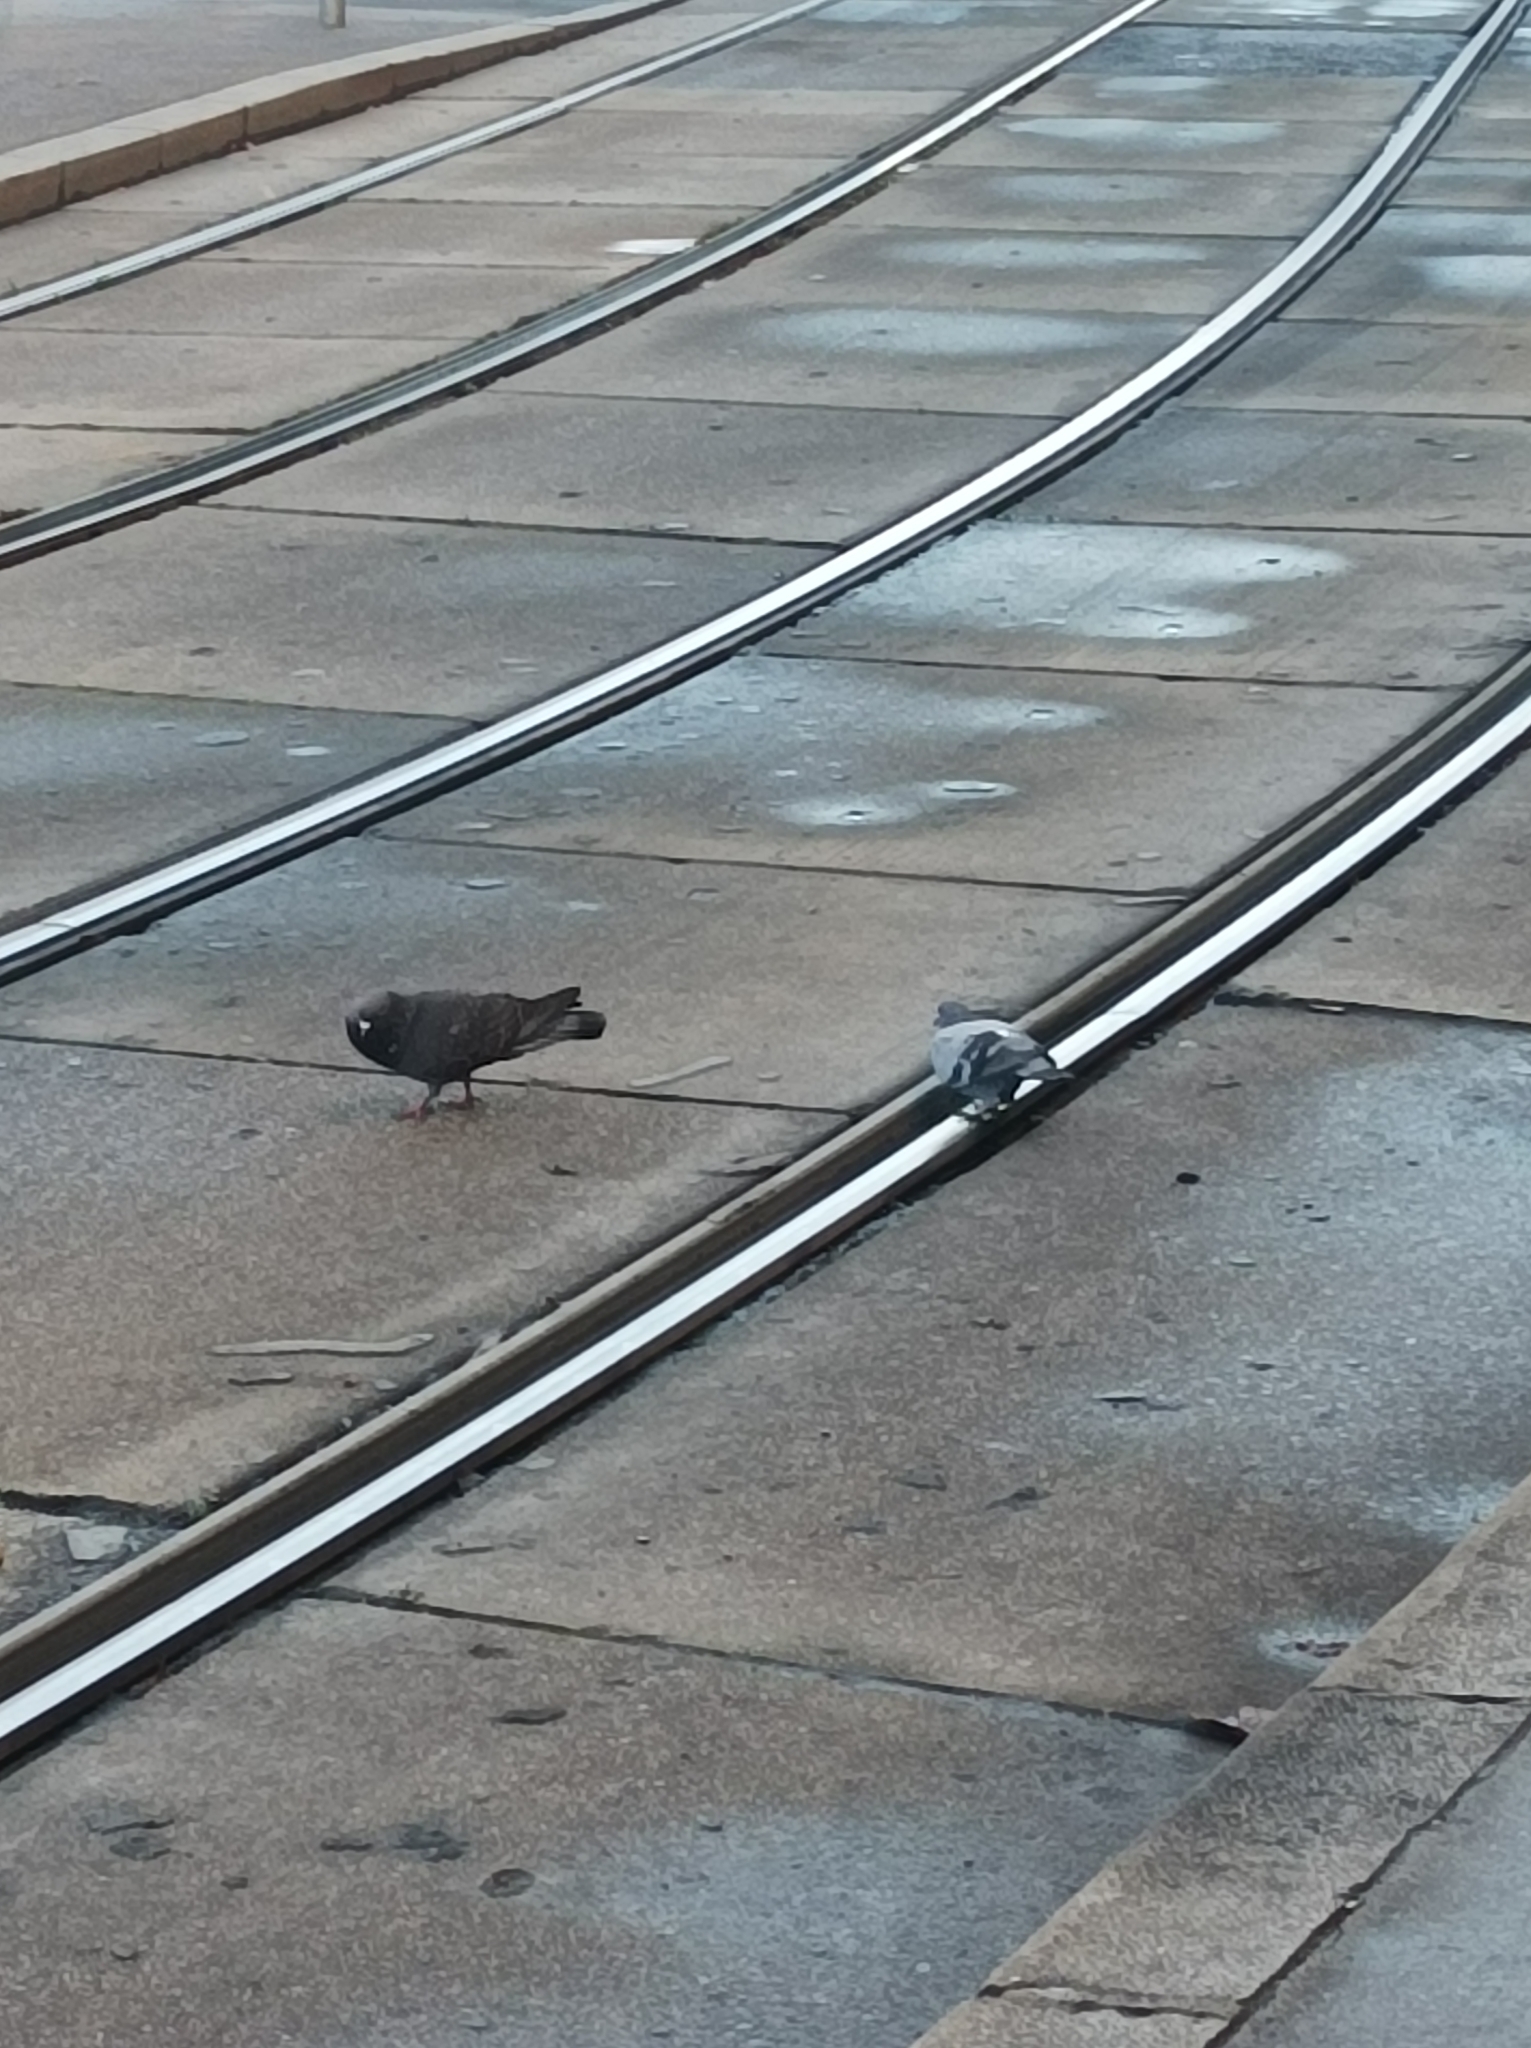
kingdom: Animalia
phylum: Chordata
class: Aves
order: Columbiformes
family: Columbidae
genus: Columba
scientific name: Columba livia
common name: Rock pigeon
